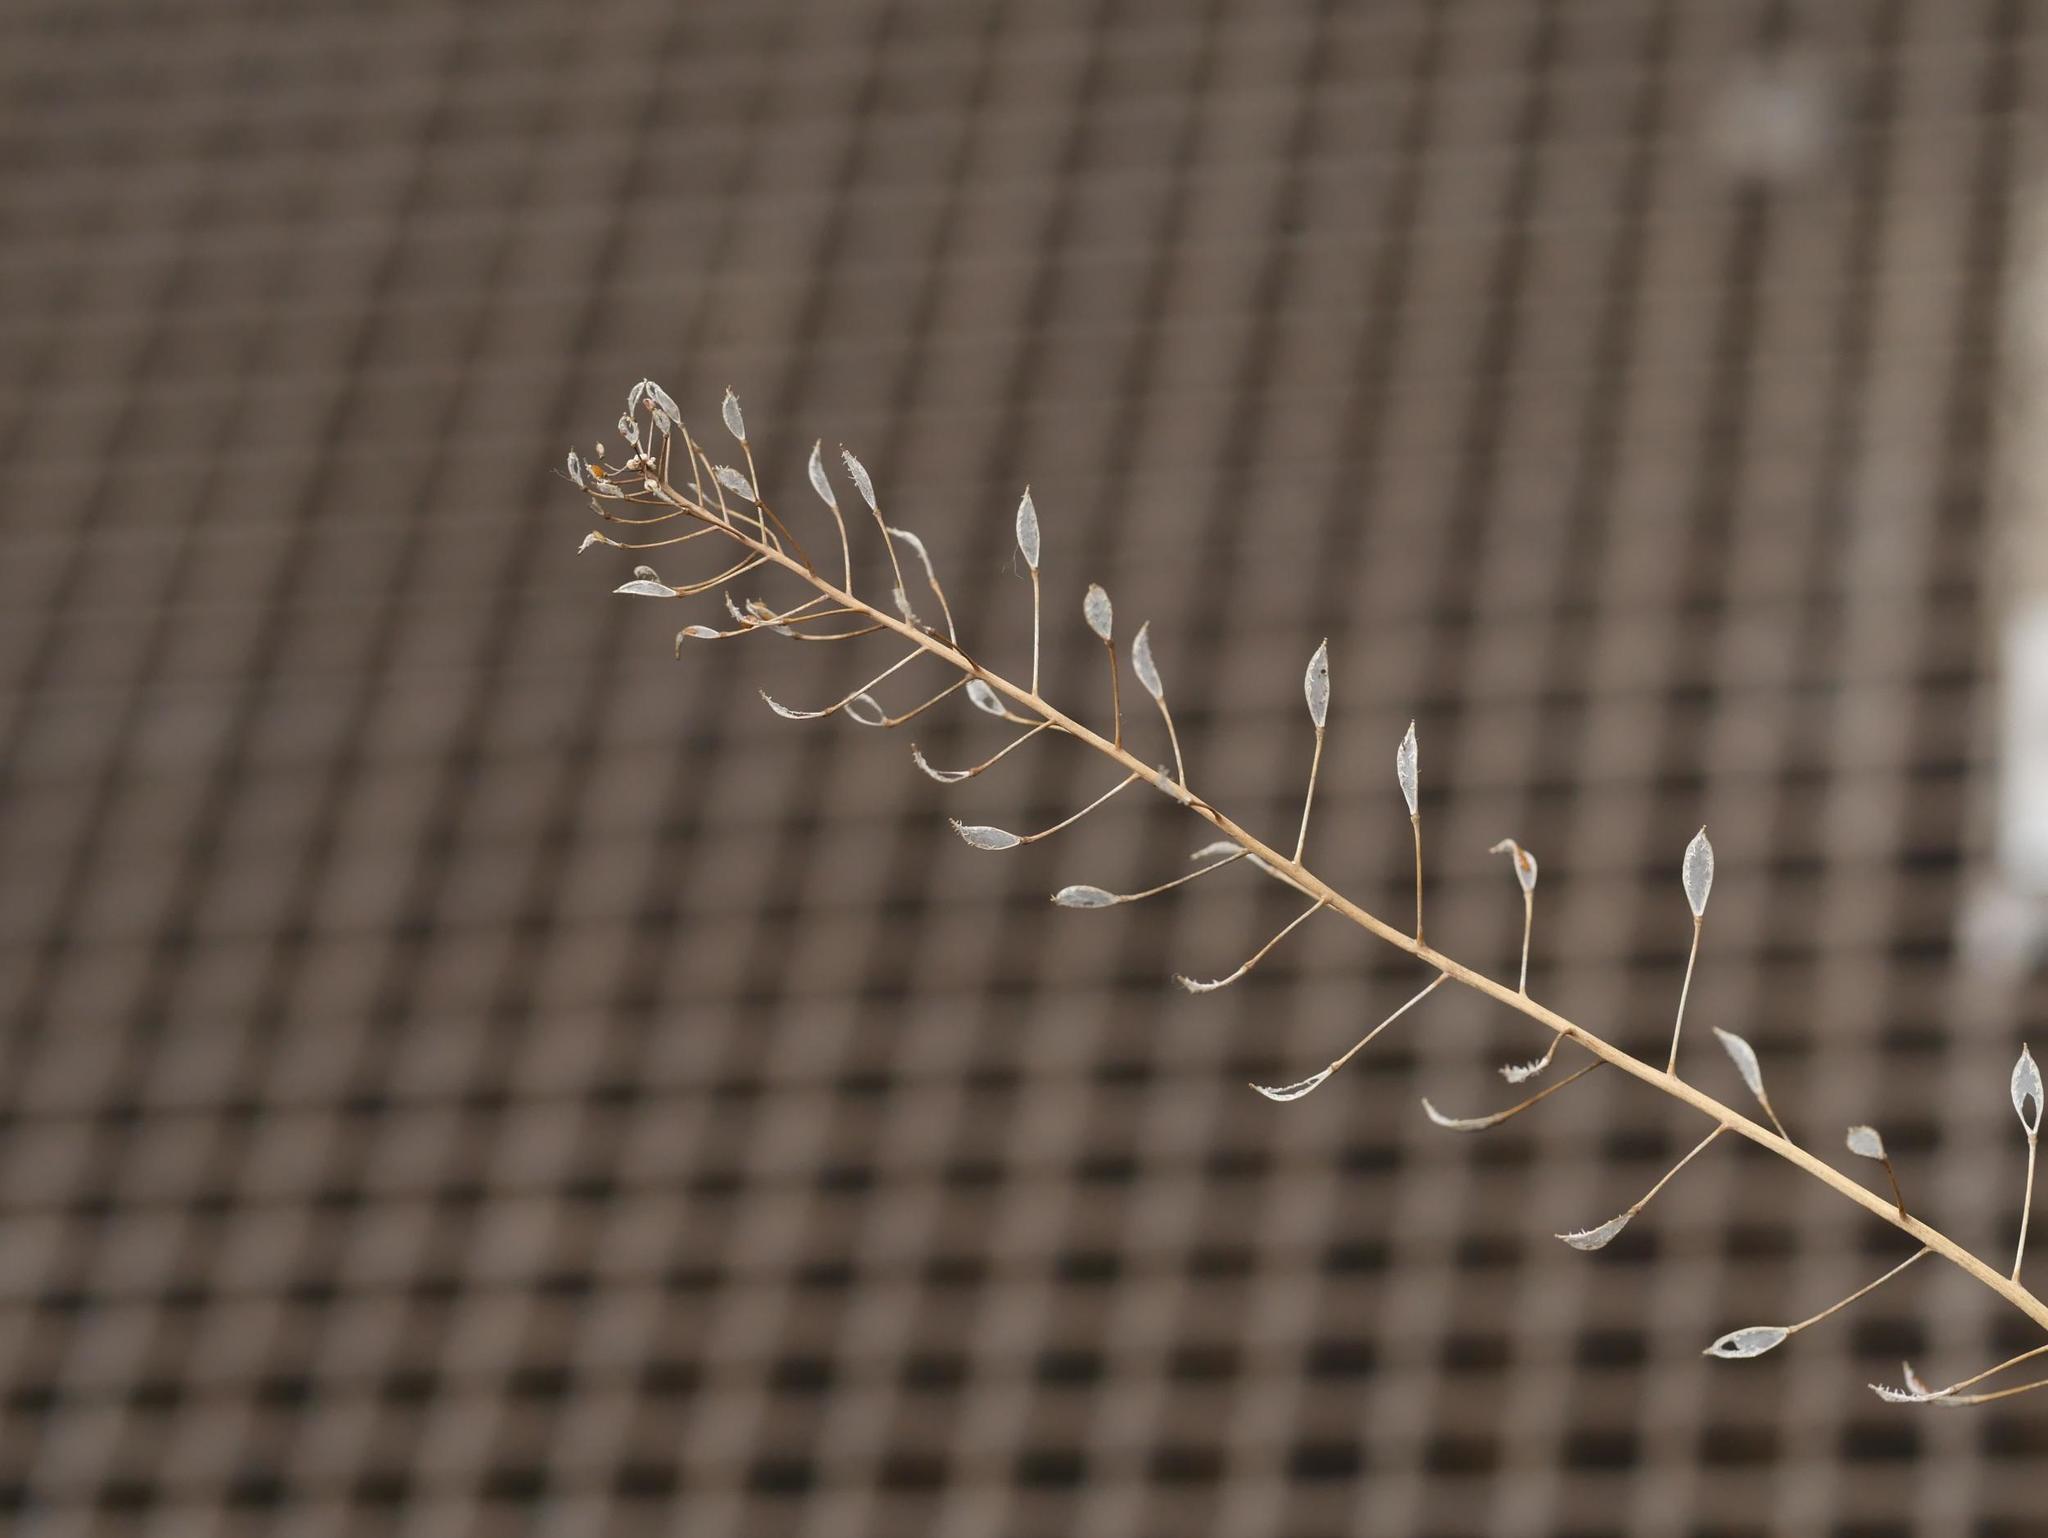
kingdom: Plantae
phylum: Tracheophyta
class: Magnoliopsida
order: Brassicales
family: Brassicaceae
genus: Capsella
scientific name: Capsella bursa-pastoris
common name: Shepherd's purse
